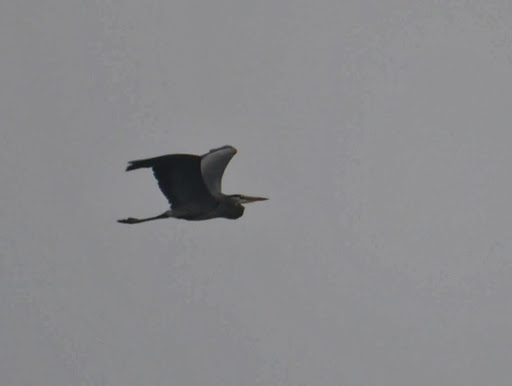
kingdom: Animalia
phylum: Chordata
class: Aves
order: Pelecaniformes
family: Ardeidae
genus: Ardea
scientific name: Ardea herodias
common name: Great blue heron
